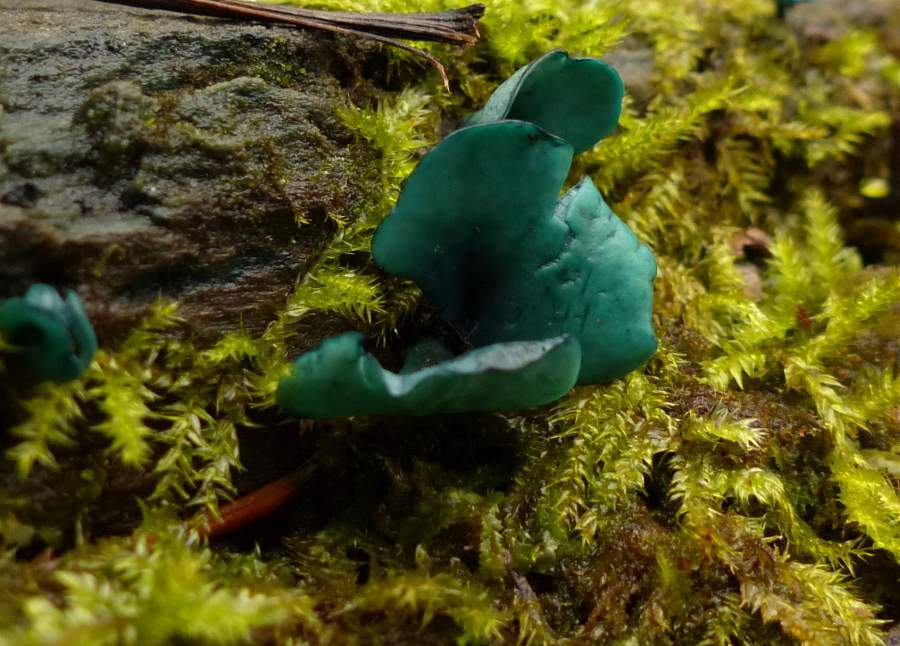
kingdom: Fungi
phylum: Ascomycota
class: Leotiomycetes
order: Helotiales
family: Chlorociboriaceae
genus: Chlorociboria
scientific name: Chlorociboria
